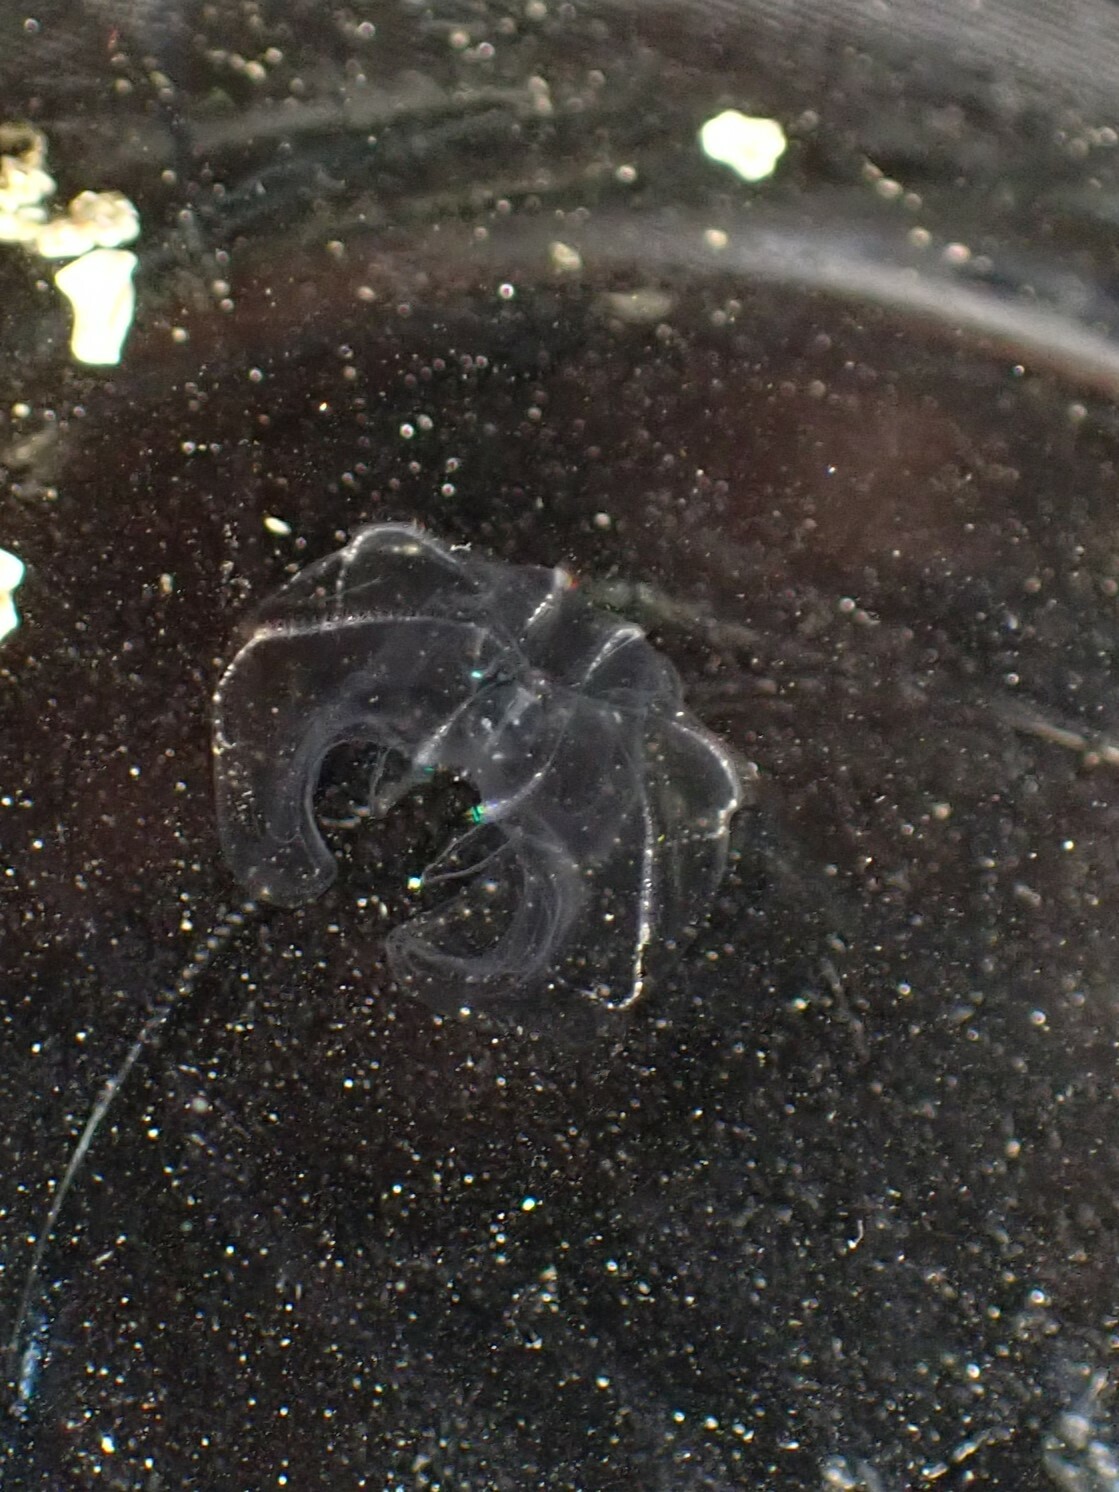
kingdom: Animalia
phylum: Ctenophora
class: Tentaculata
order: Lobata
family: Bolinopsidae
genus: Bolinopsis
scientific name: Bolinopsis microptera
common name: Short-lobed comb jelly
